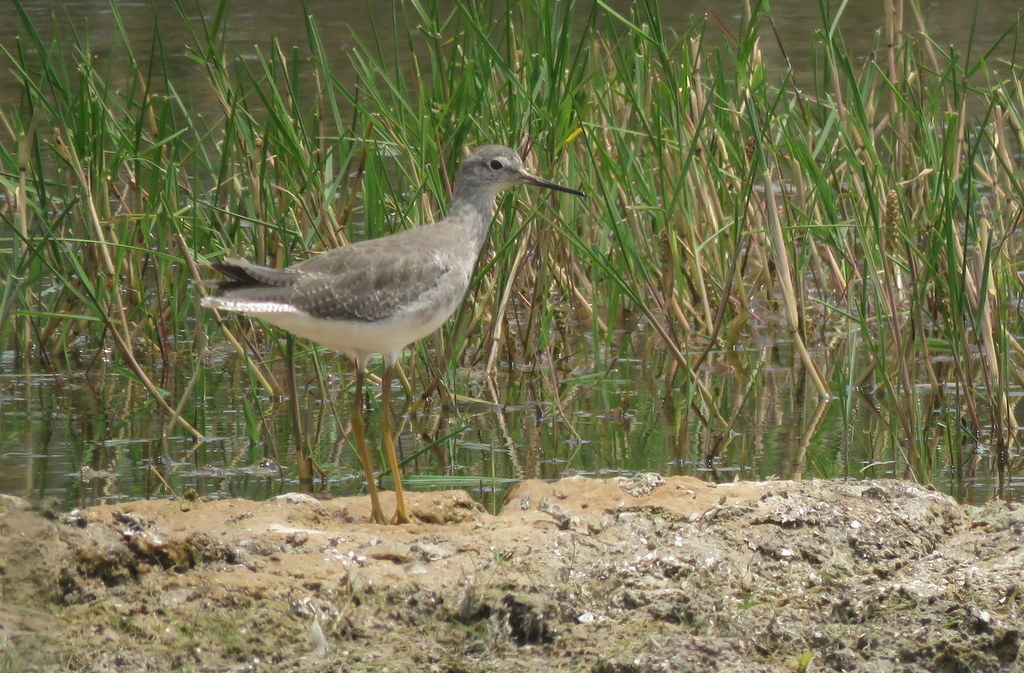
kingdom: Animalia
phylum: Chordata
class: Aves
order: Charadriiformes
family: Scolopacidae
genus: Tringa
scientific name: Tringa flavipes
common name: Lesser yellowlegs
